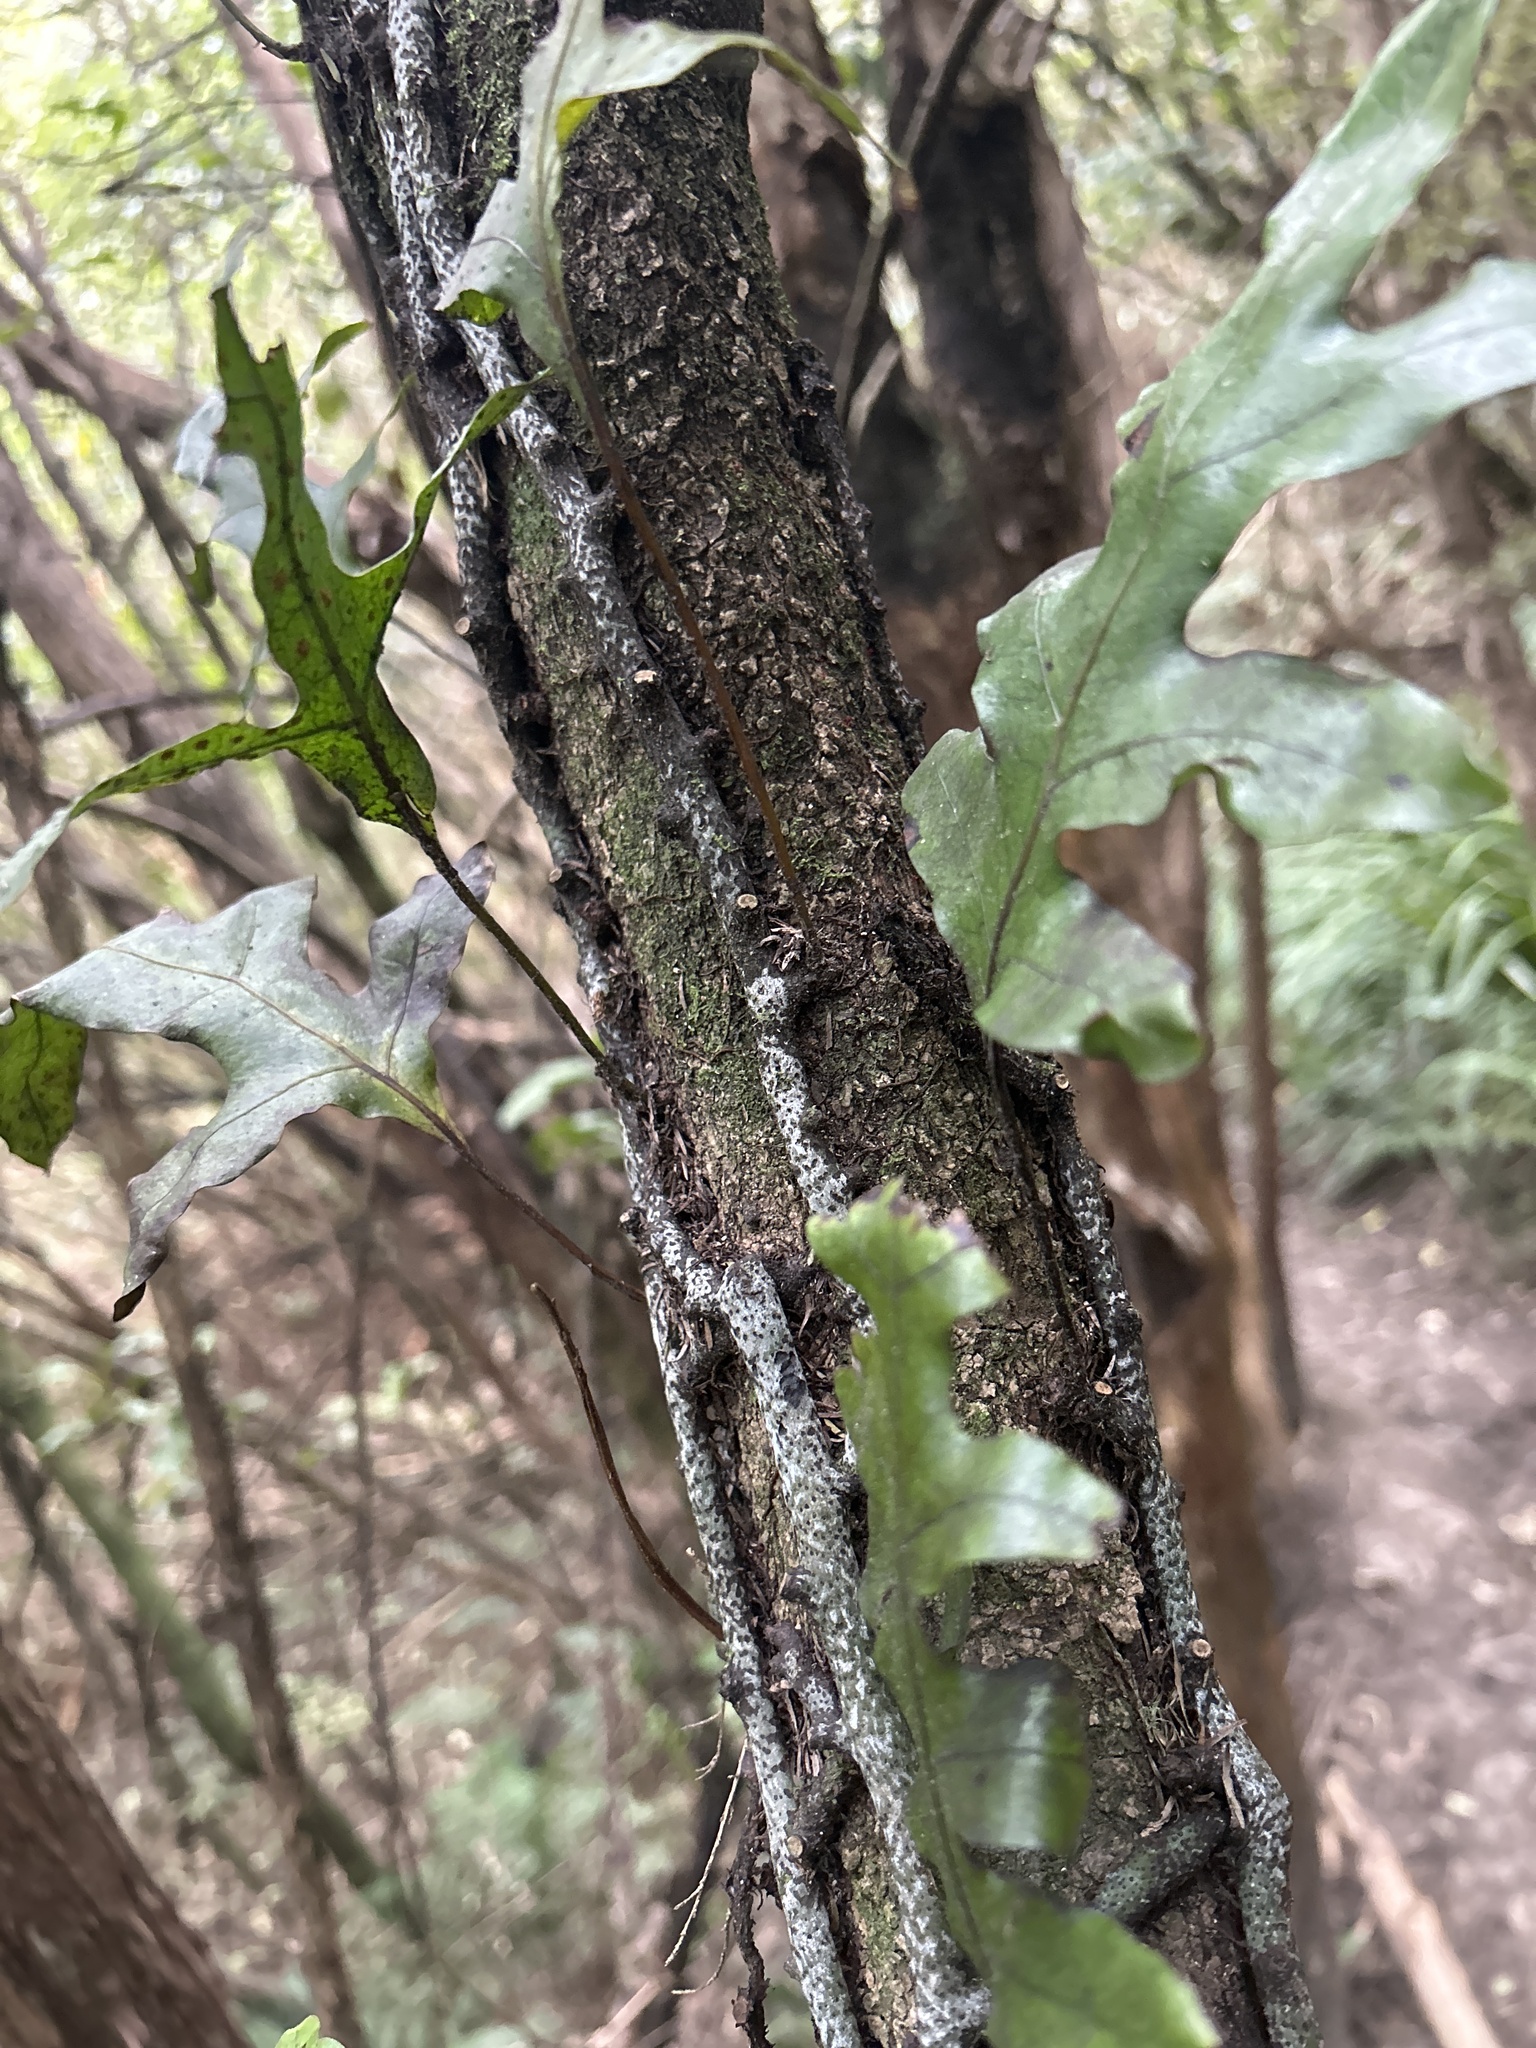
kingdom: Plantae
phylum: Tracheophyta
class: Polypodiopsida
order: Polypodiales
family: Polypodiaceae
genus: Lecanopteris
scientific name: Lecanopteris pustulata
